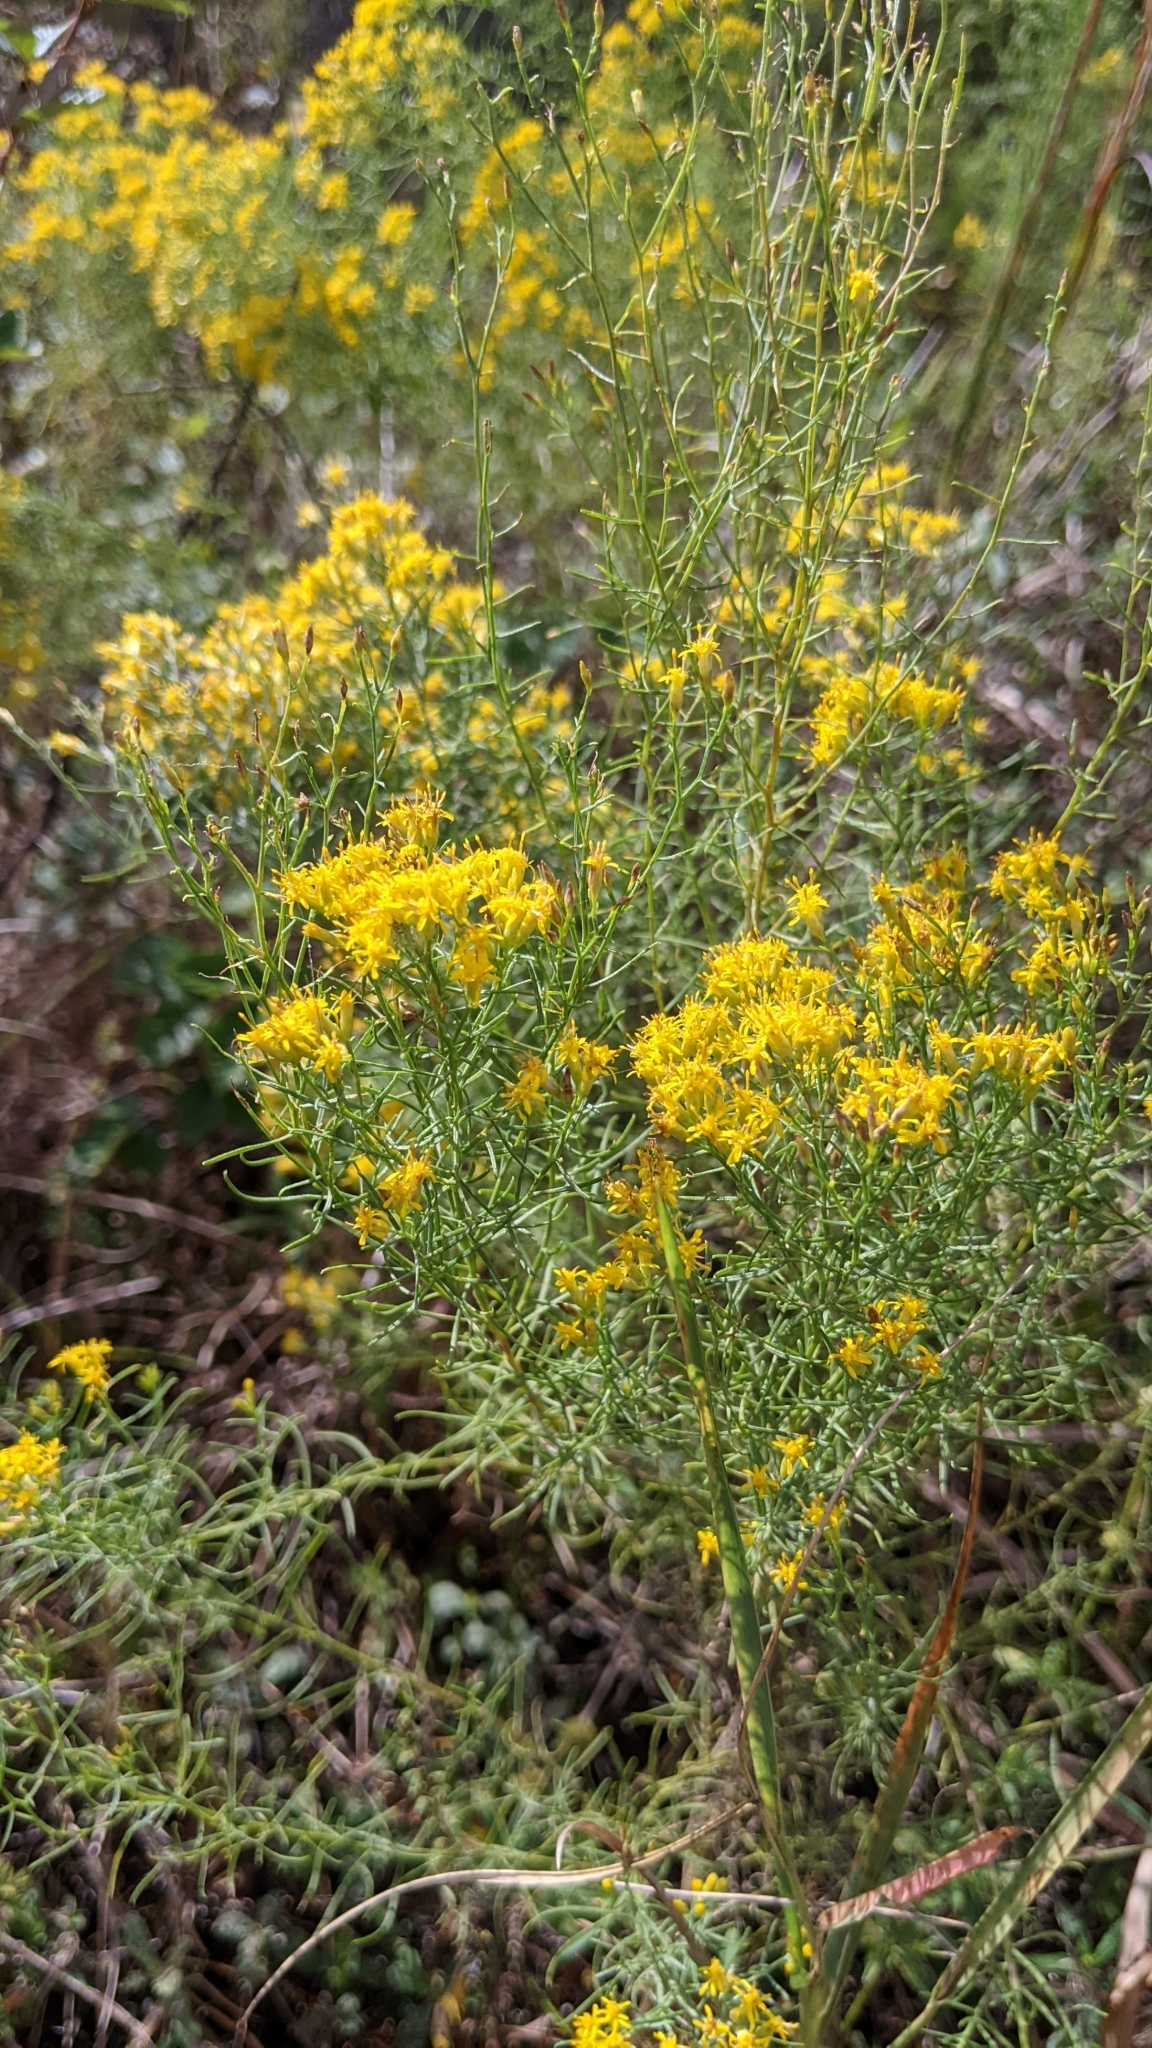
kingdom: Plantae
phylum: Tracheophyta
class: Magnoliopsida
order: Asterales
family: Asteraceae
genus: Euthamia
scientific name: Euthamia caroliniana
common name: Coastal plain goldentop
